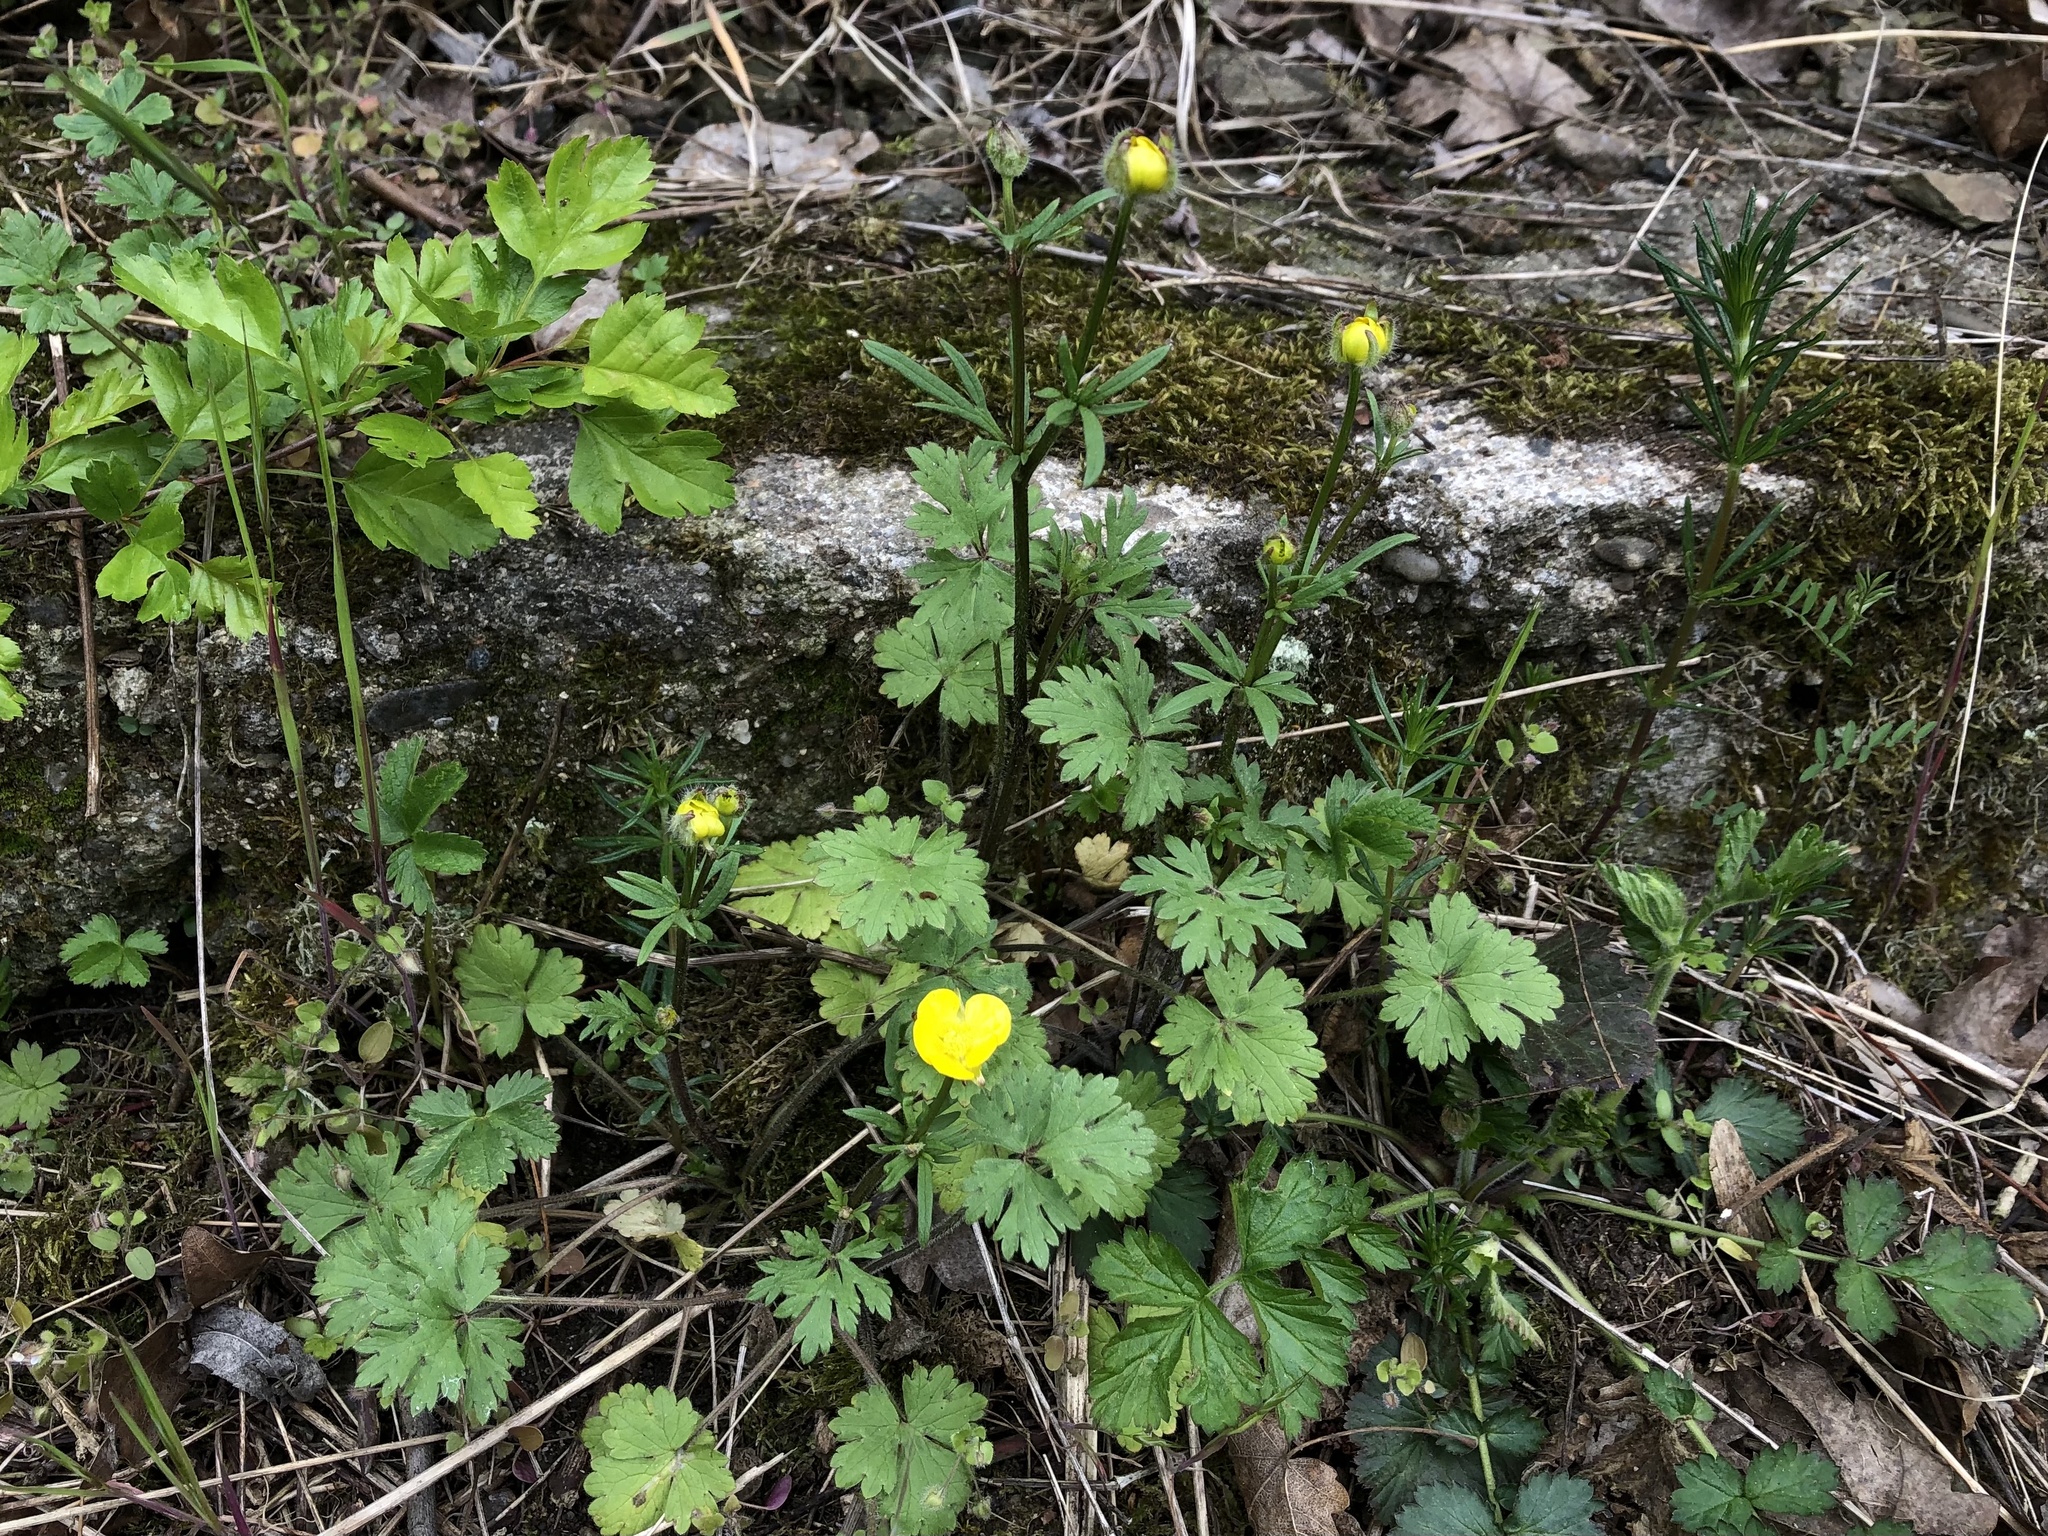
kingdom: Plantae
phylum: Tracheophyta
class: Magnoliopsida
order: Ranunculales
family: Ranunculaceae
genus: Ranunculus
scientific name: Ranunculus bulbosus
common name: Bulbous buttercup
